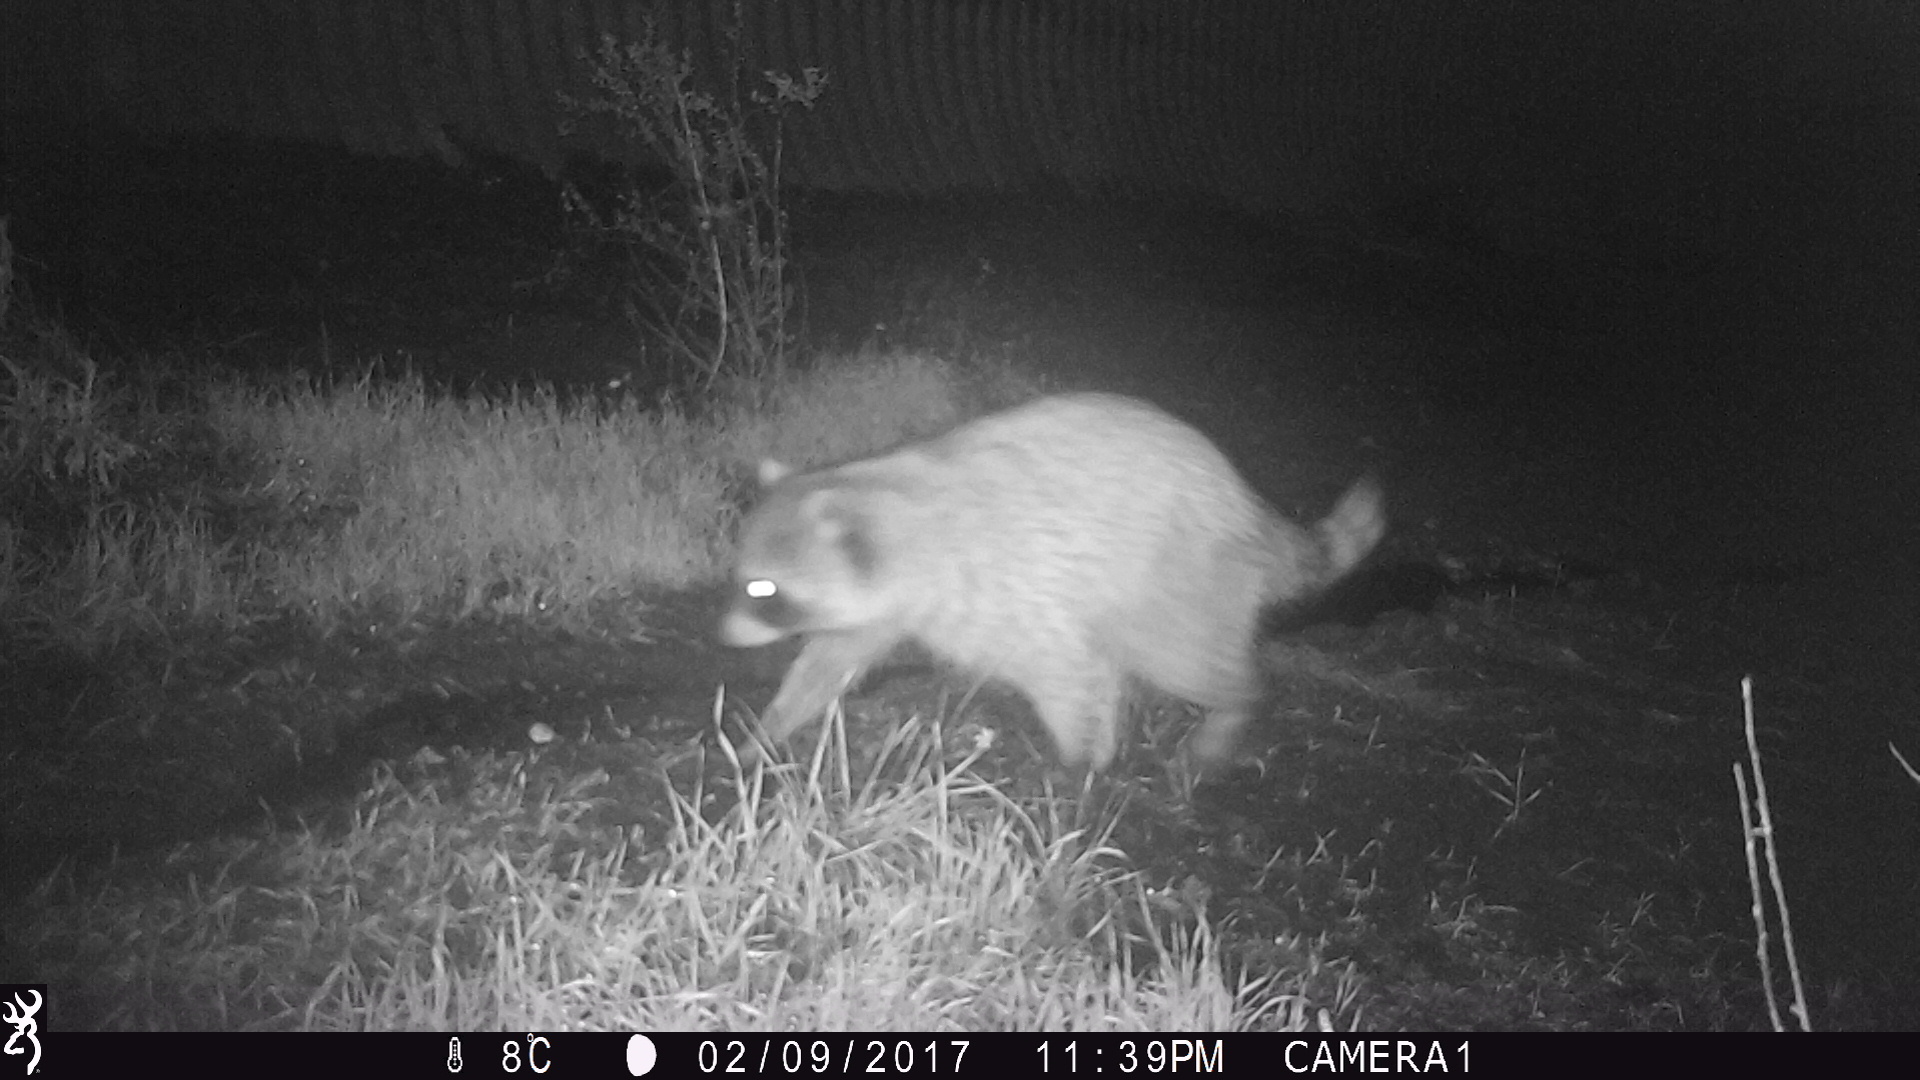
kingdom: Animalia
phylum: Chordata
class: Mammalia
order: Carnivora
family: Procyonidae
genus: Procyon
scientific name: Procyon lotor
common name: Raccoon
